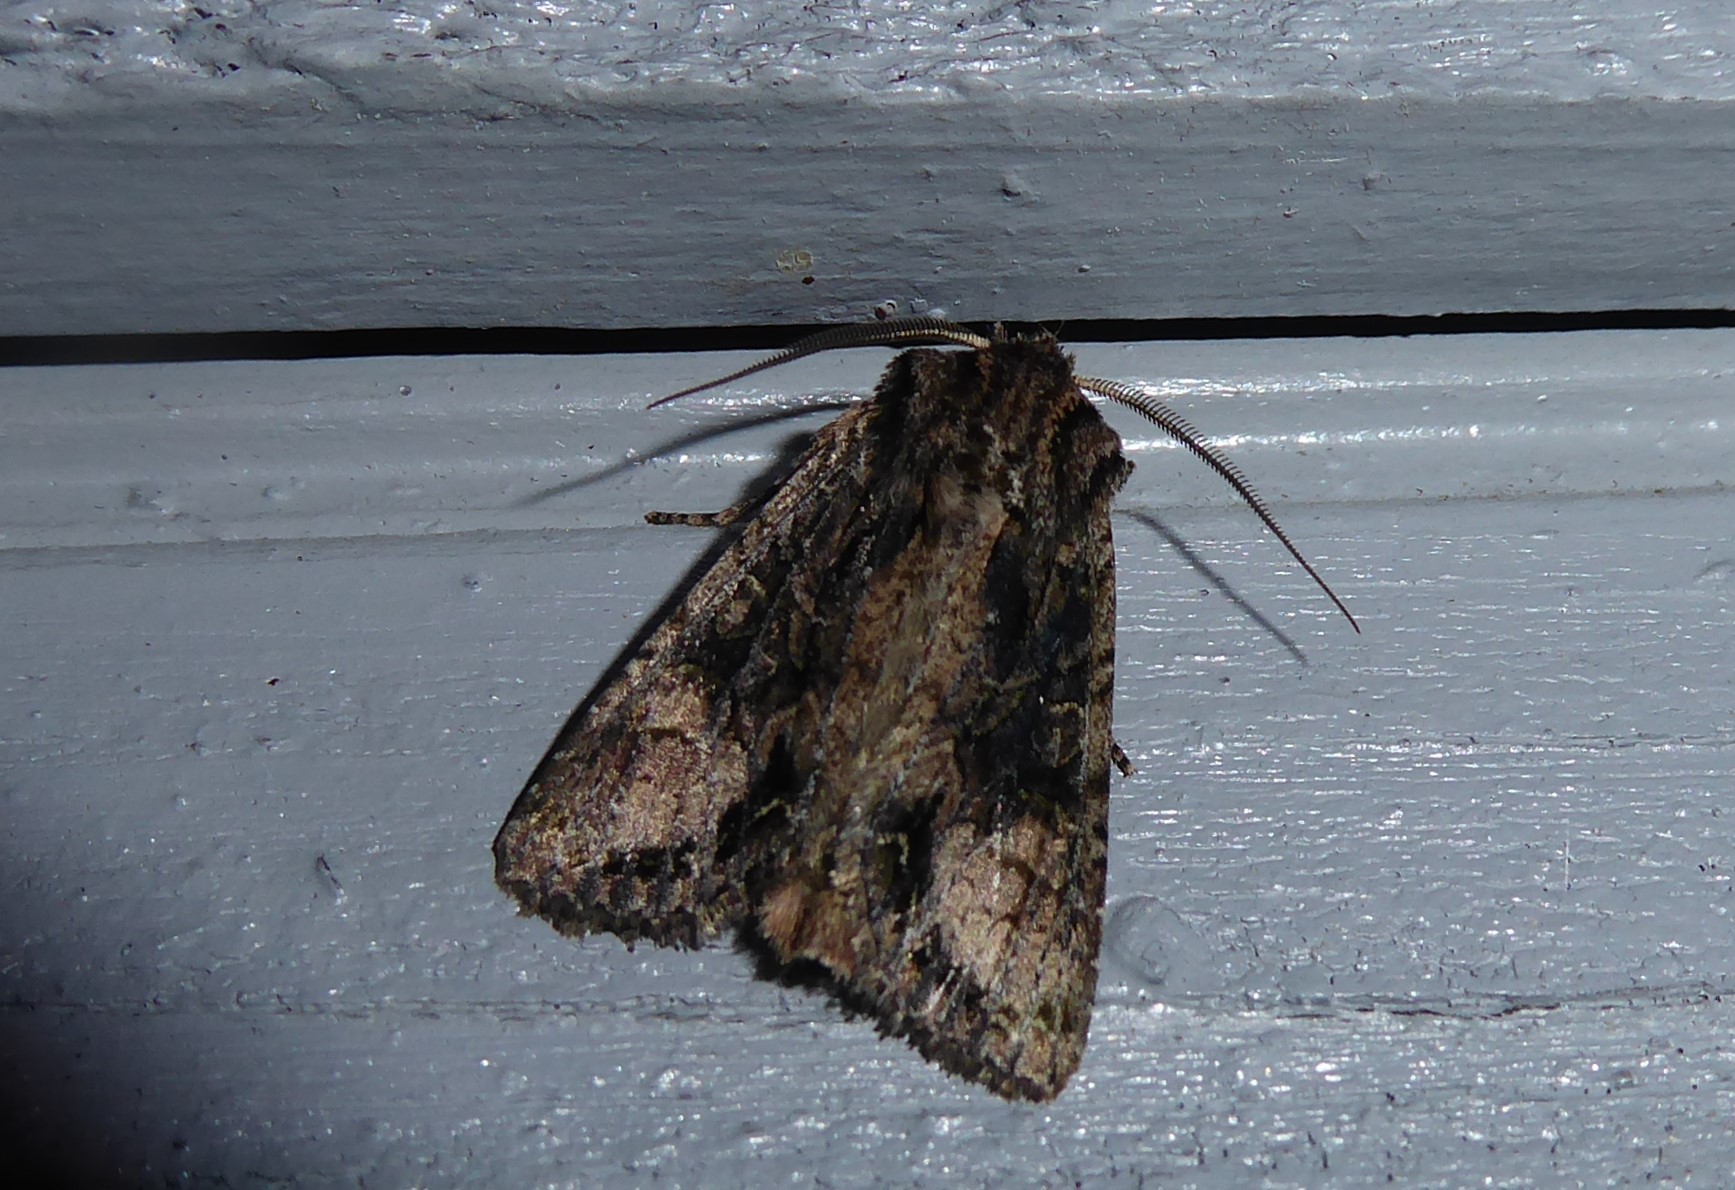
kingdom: Animalia
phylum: Arthropoda
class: Insecta
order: Lepidoptera
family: Noctuidae
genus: Ichneutica
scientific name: Ichneutica mutans
